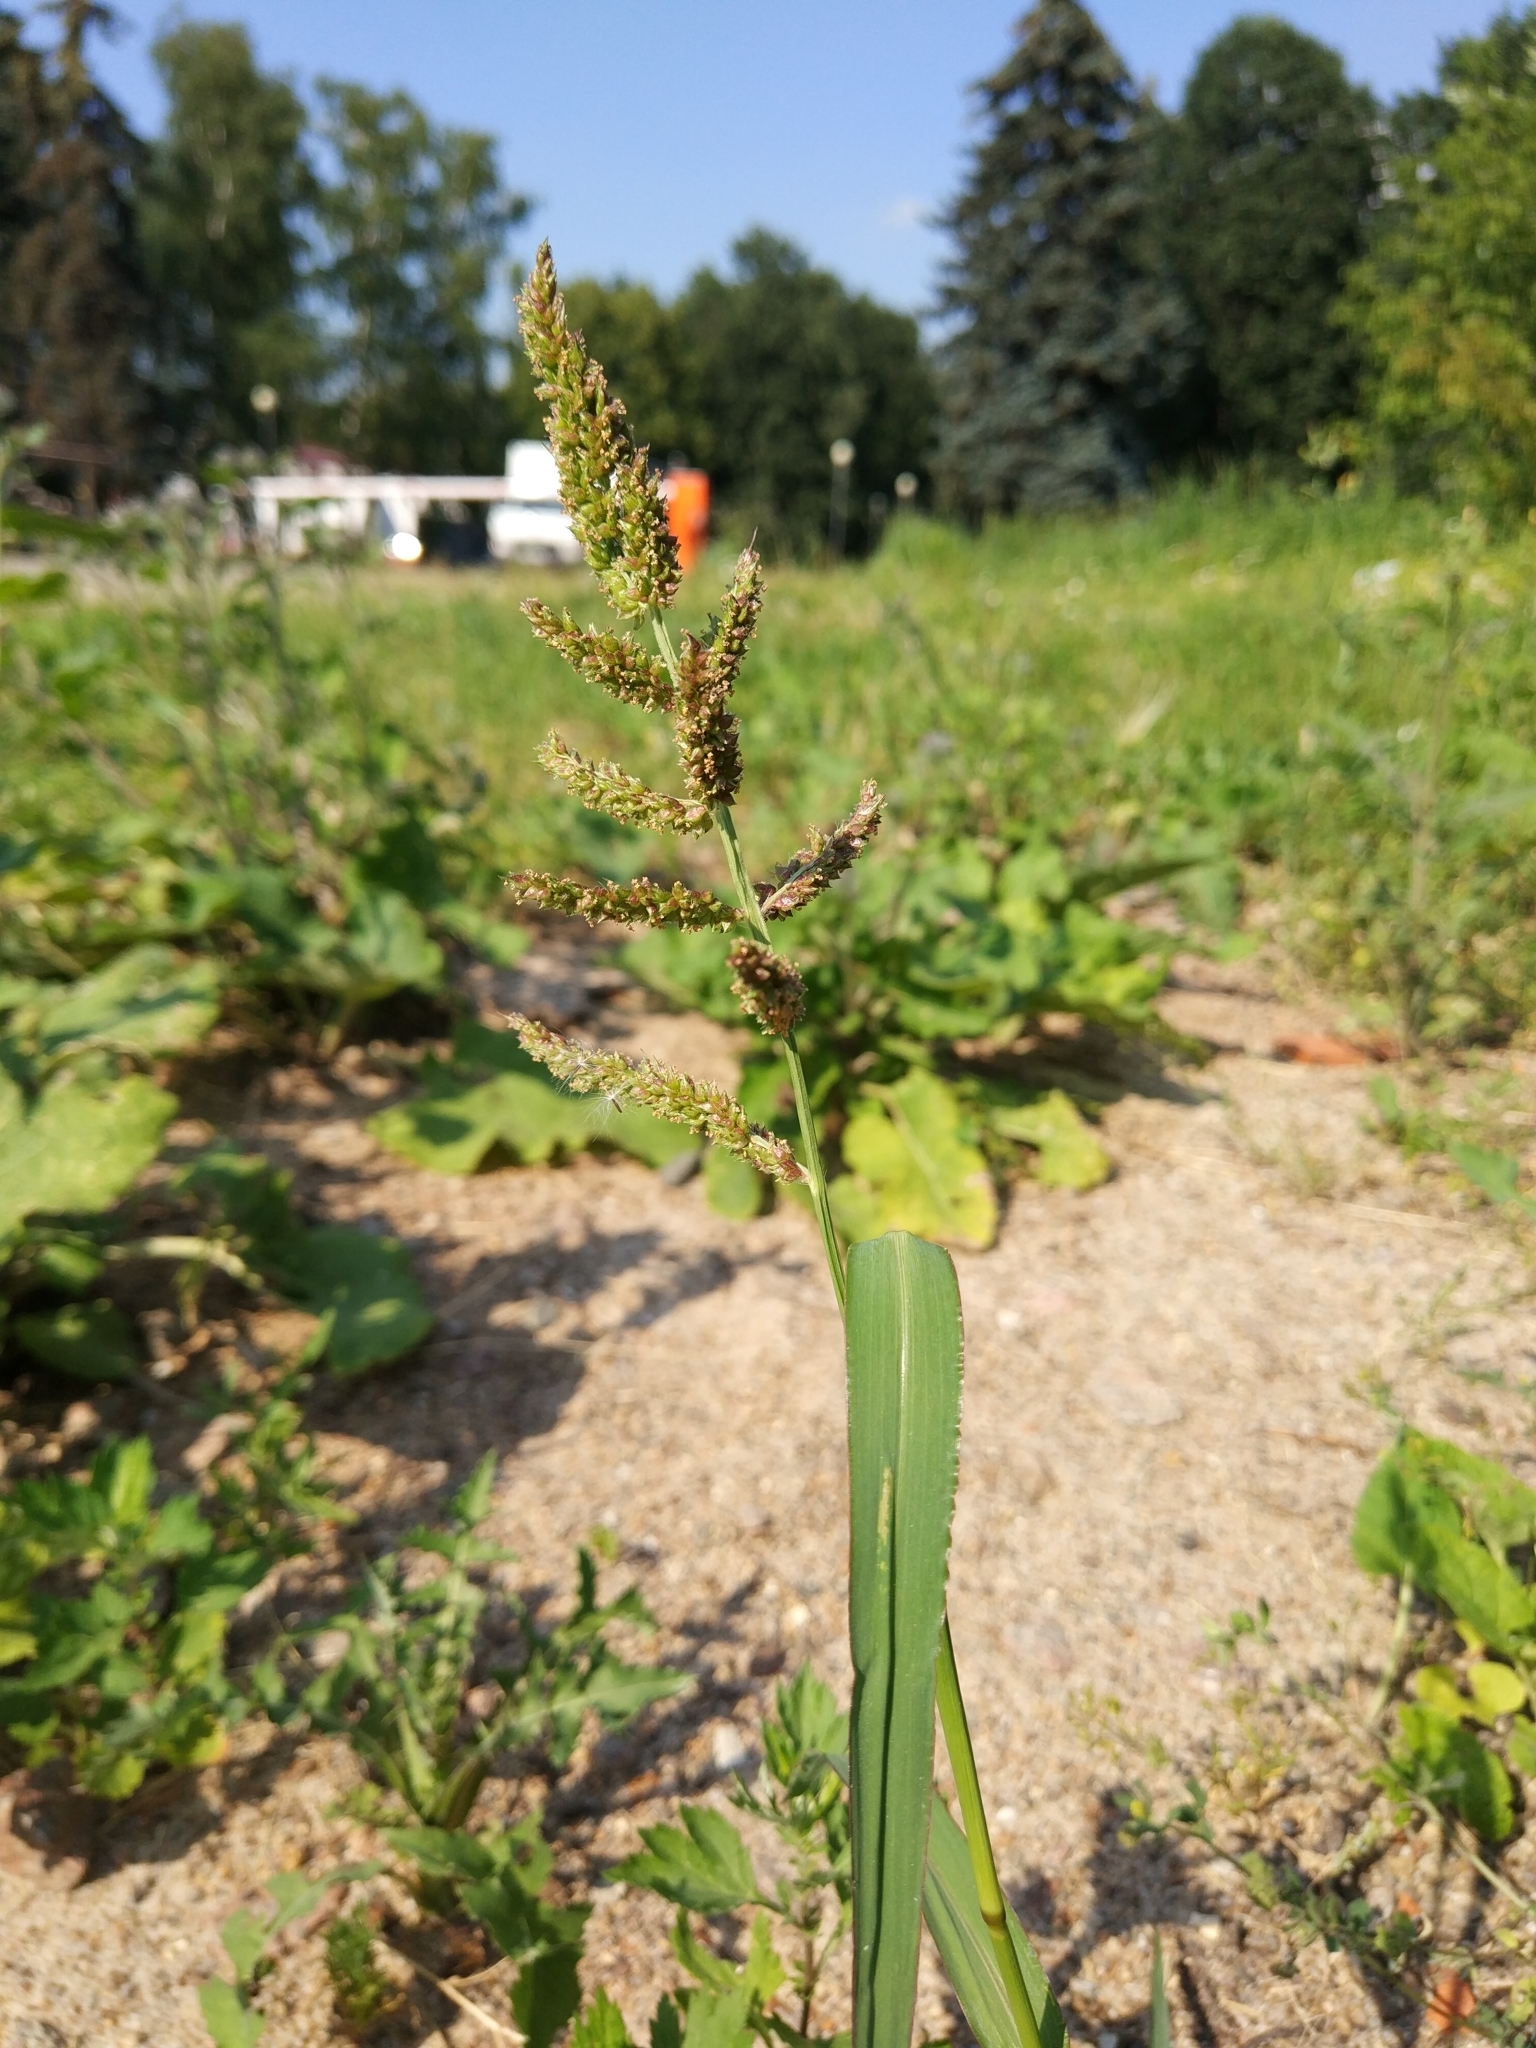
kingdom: Plantae
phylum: Tracheophyta
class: Liliopsida
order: Poales
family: Poaceae
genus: Echinochloa
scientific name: Echinochloa crus-galli
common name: Cockspur
